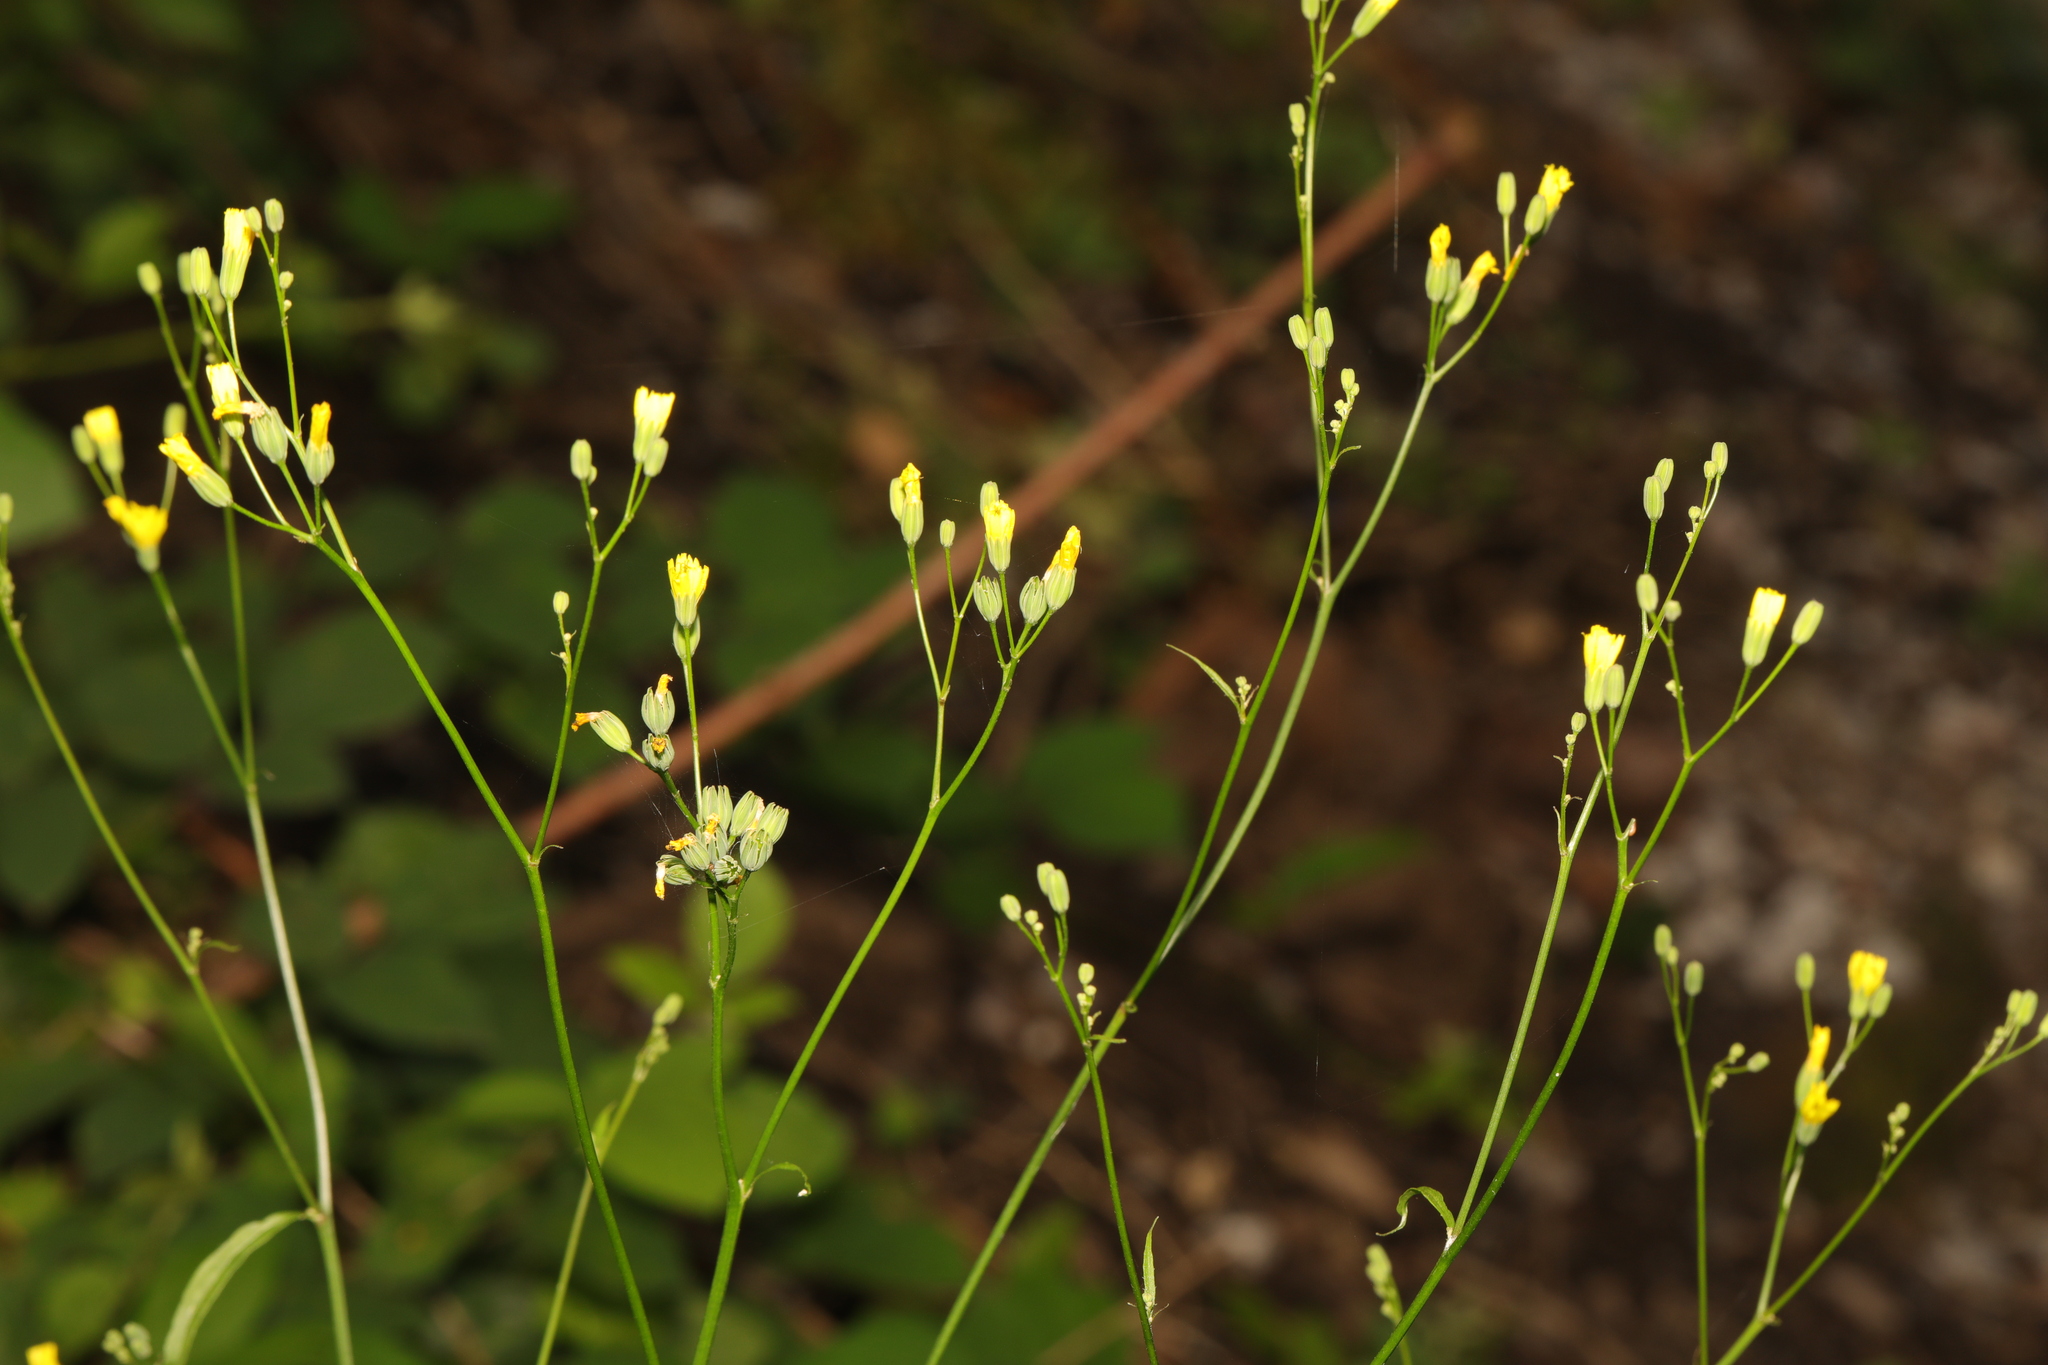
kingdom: Plantae
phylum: Tracheophyta
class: Magnoliopsida
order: Asterales
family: Asteraceae
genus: Lapsana
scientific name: Lapsana communis
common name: Nipplewort
